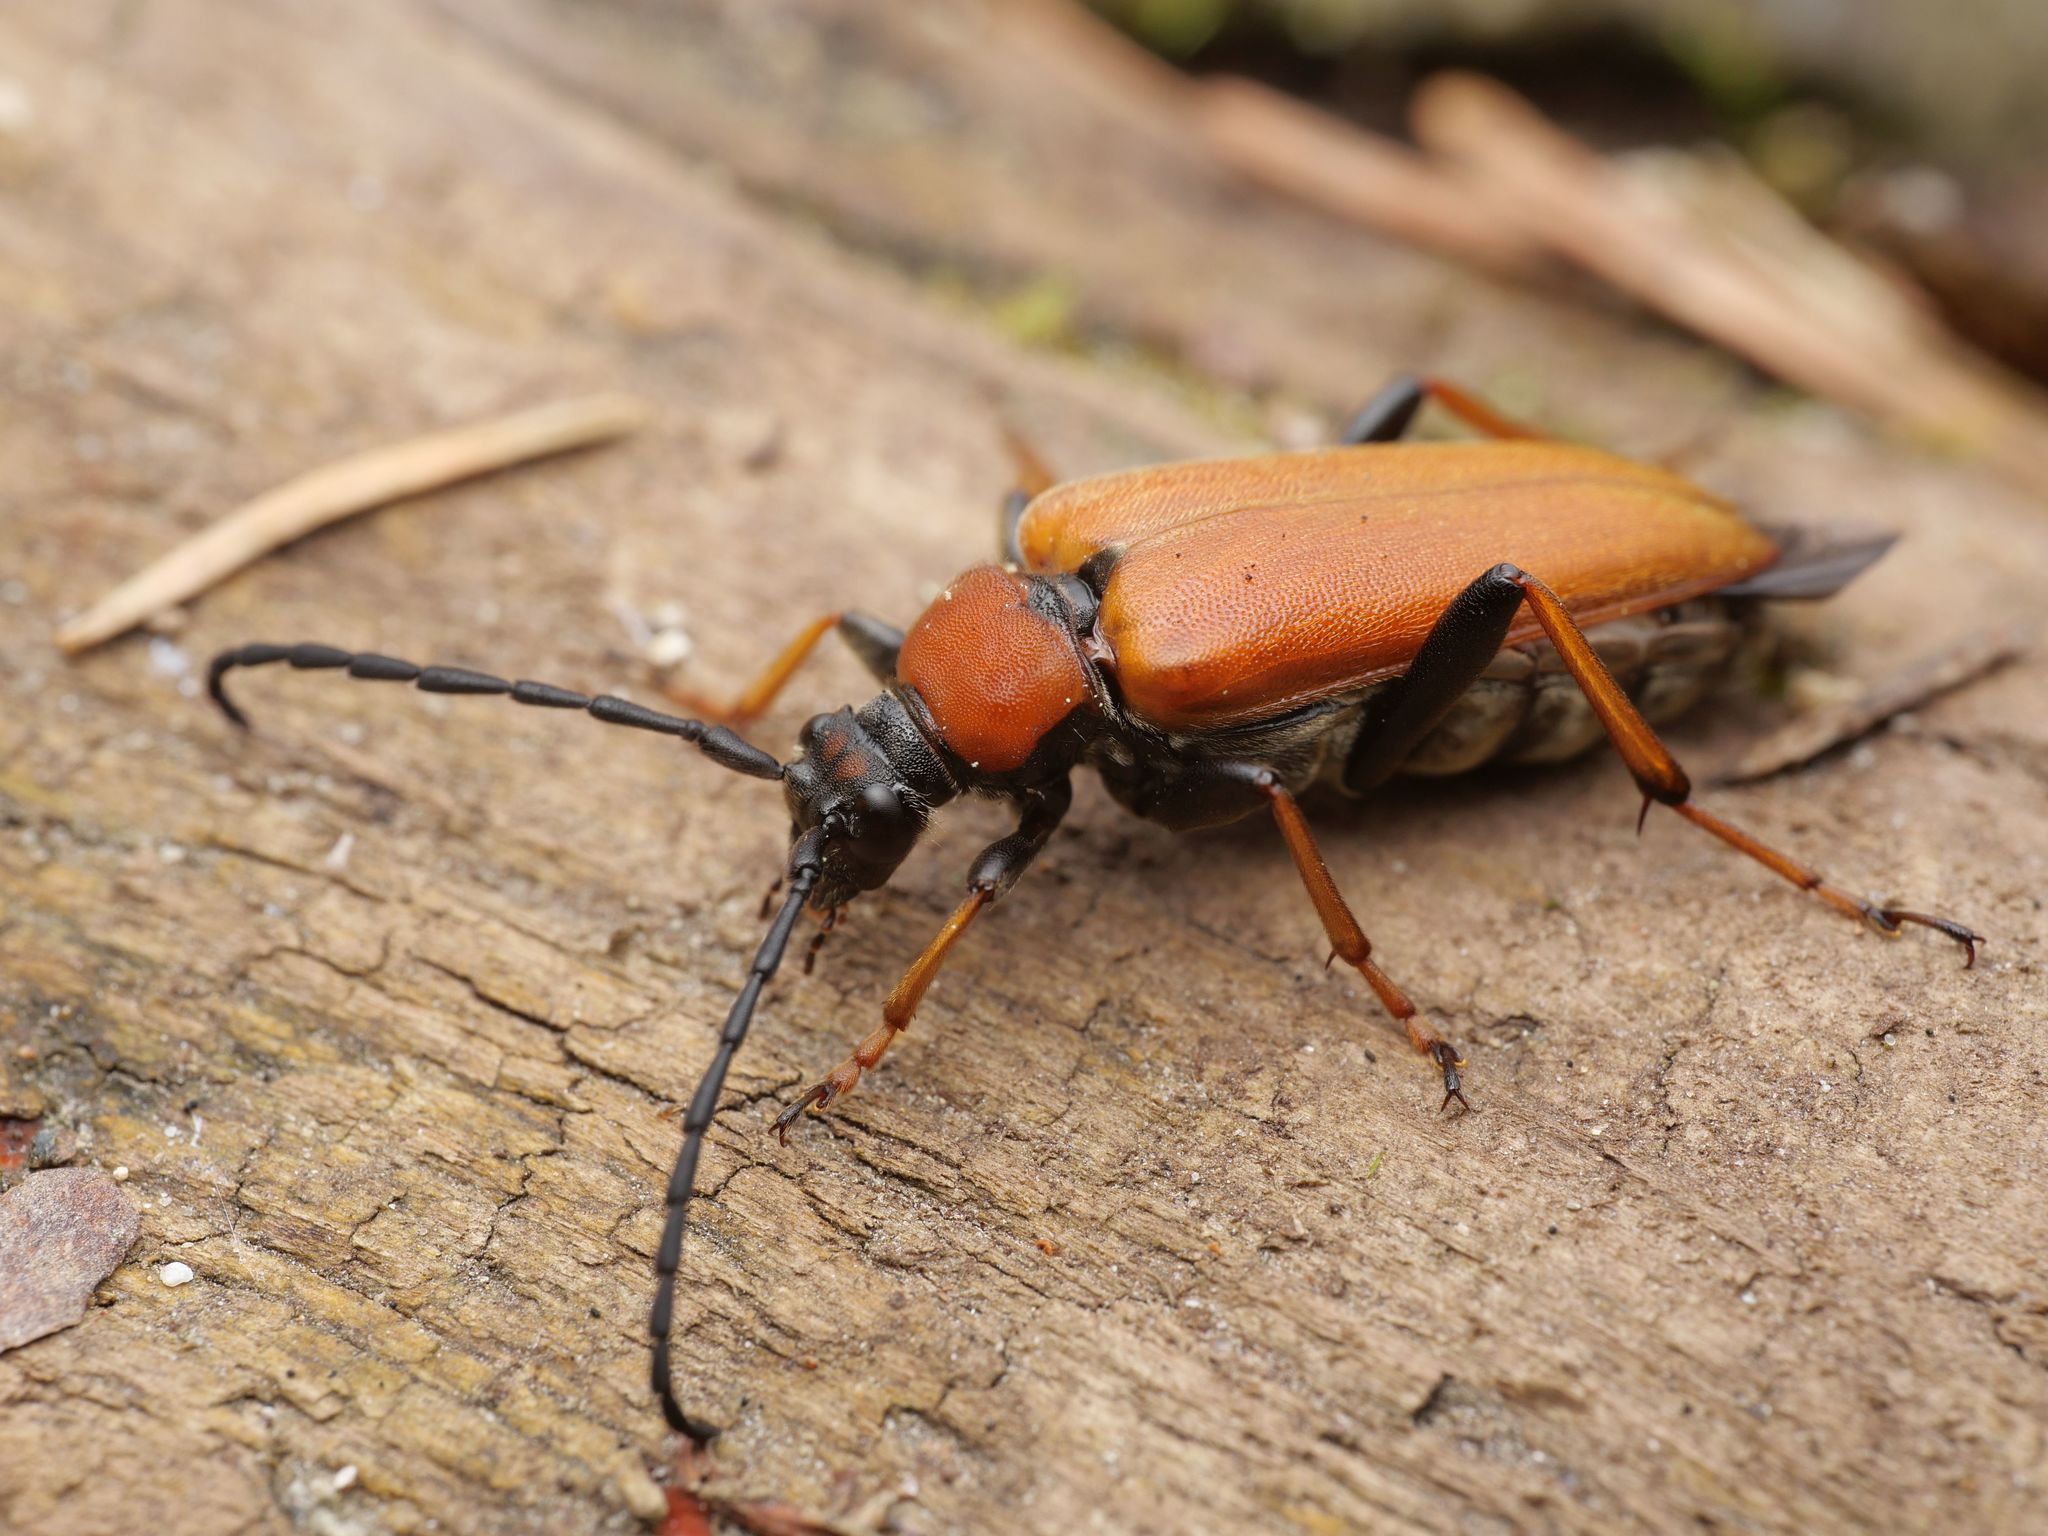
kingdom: Animalia
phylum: Arthropoda
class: Insecta
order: Coleoptera
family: Cerambycidae
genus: Stictoleptura
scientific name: Stictoleptura rubra
